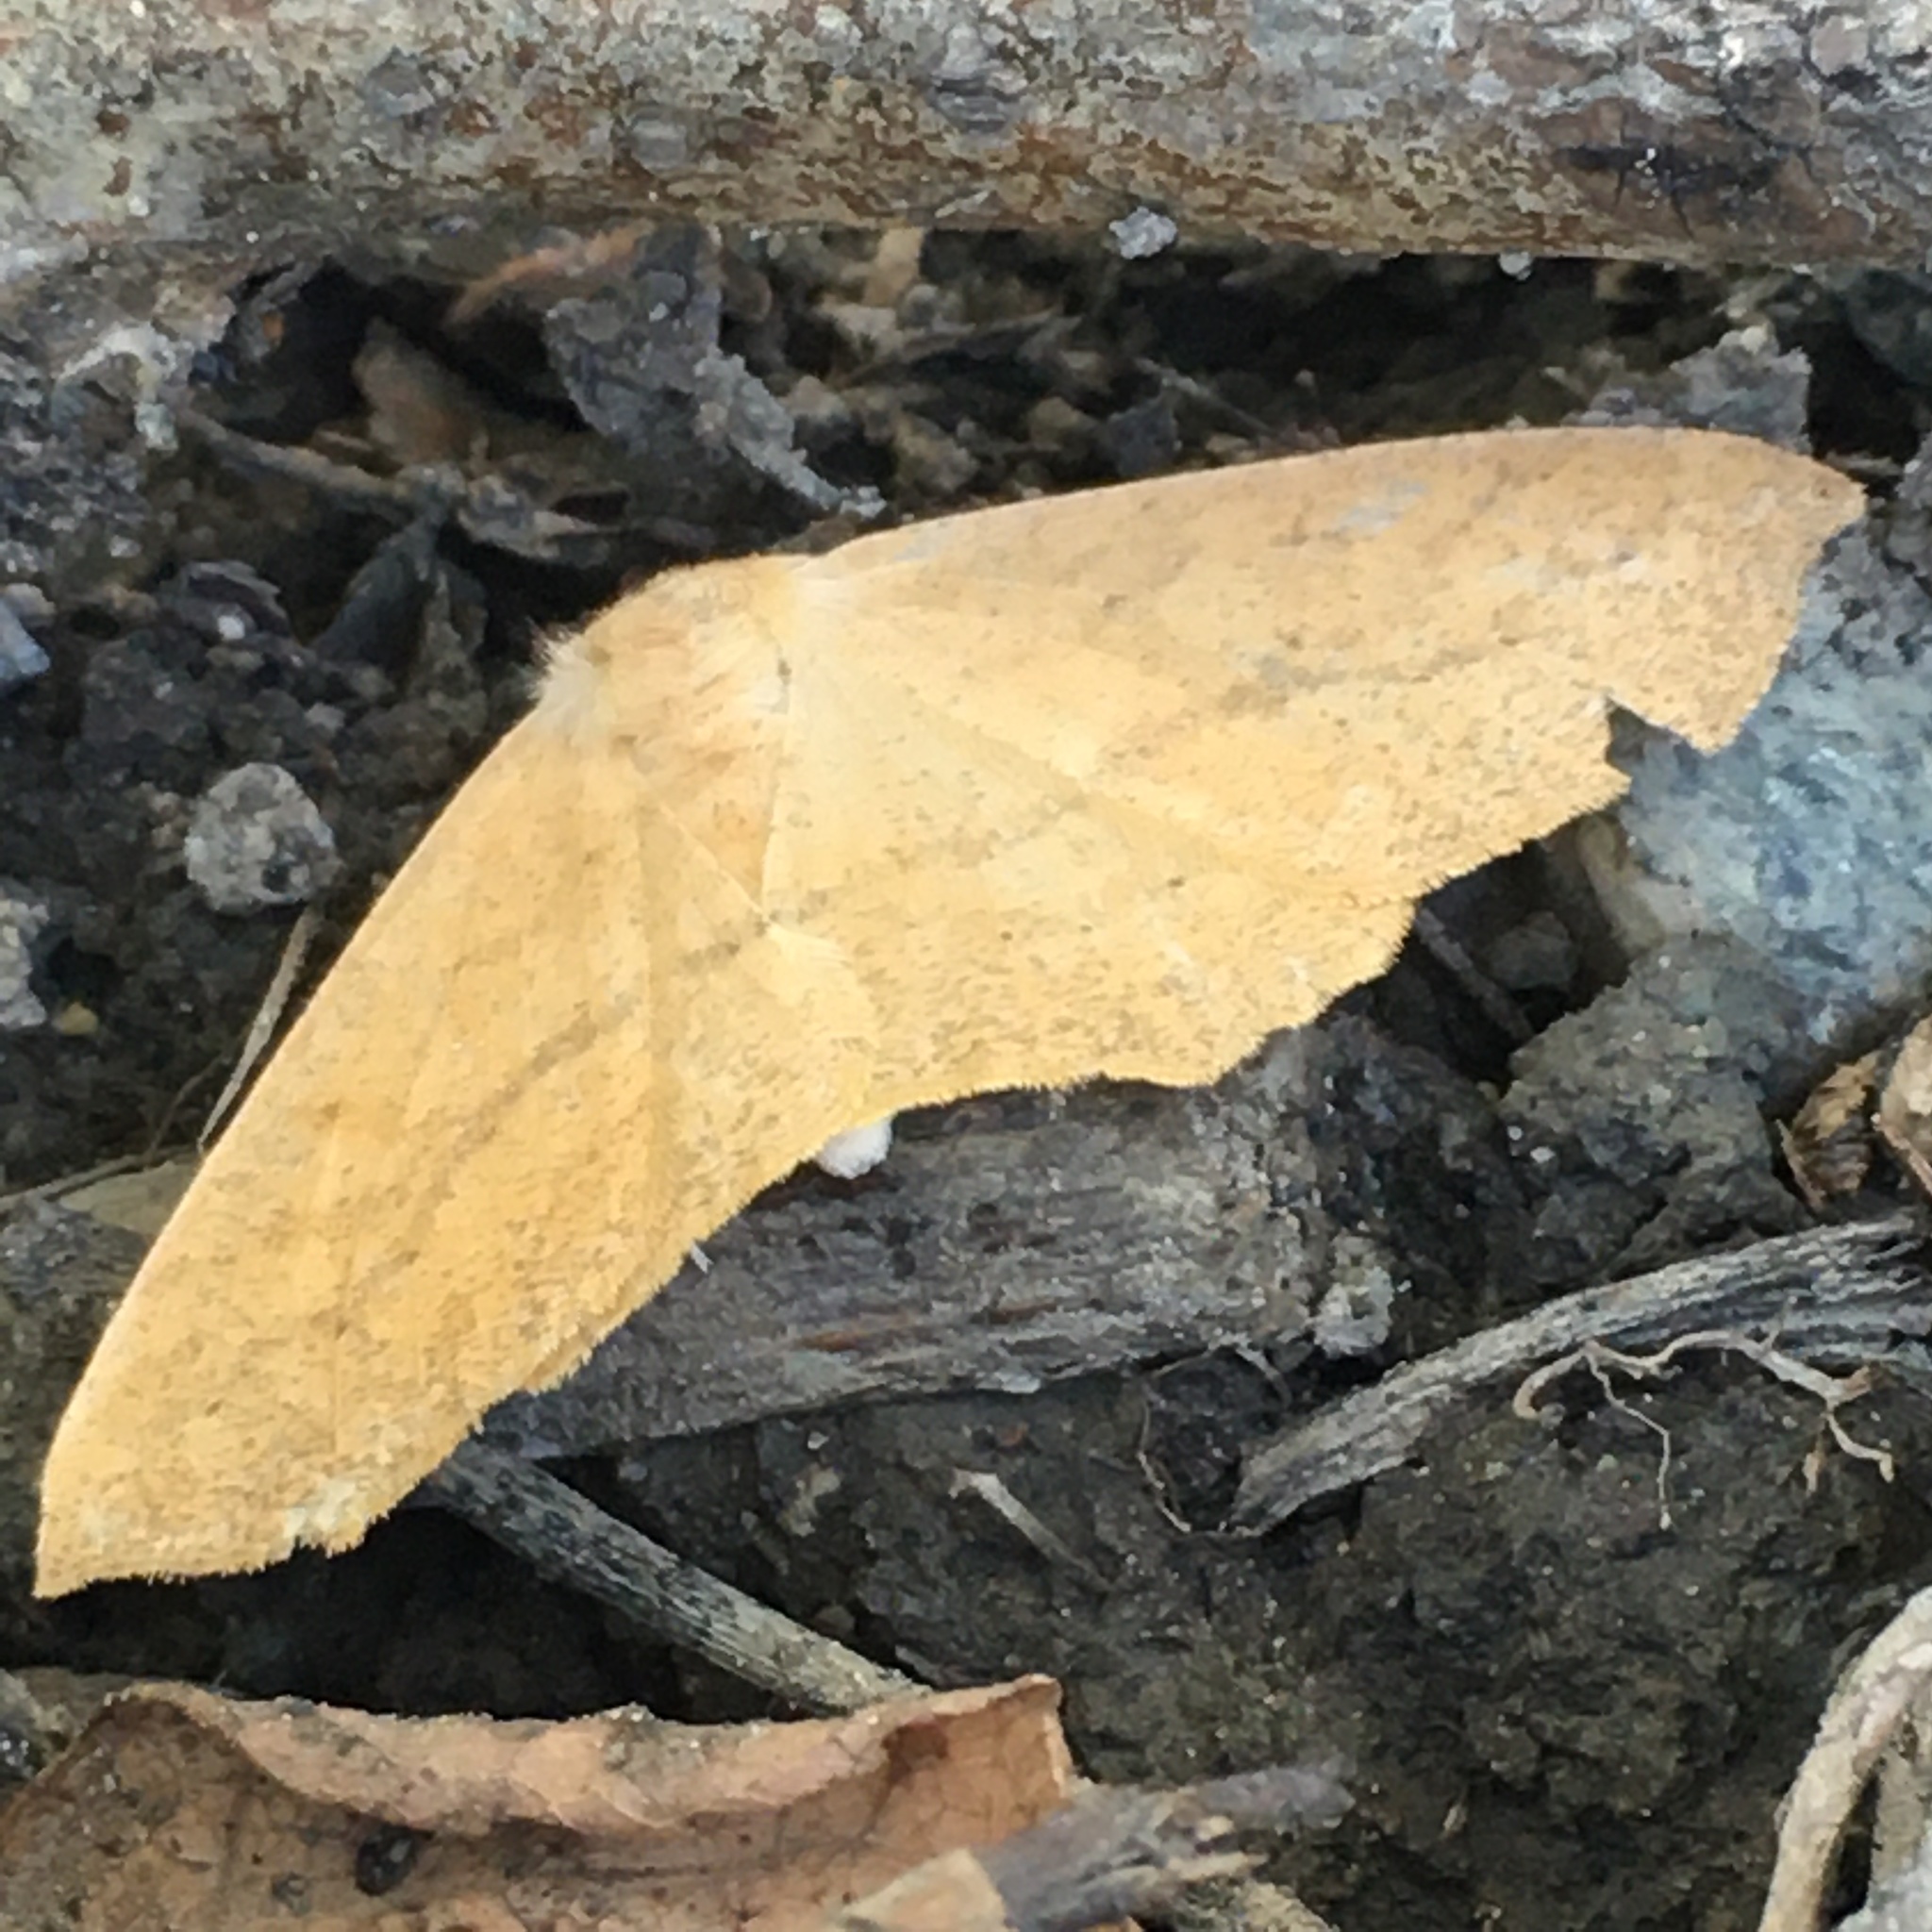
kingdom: Animalia
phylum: Arthropoda
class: Insecta
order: Lepidoptera
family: Geometridae
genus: Sabulodes
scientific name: Sabulodes aegrotata
